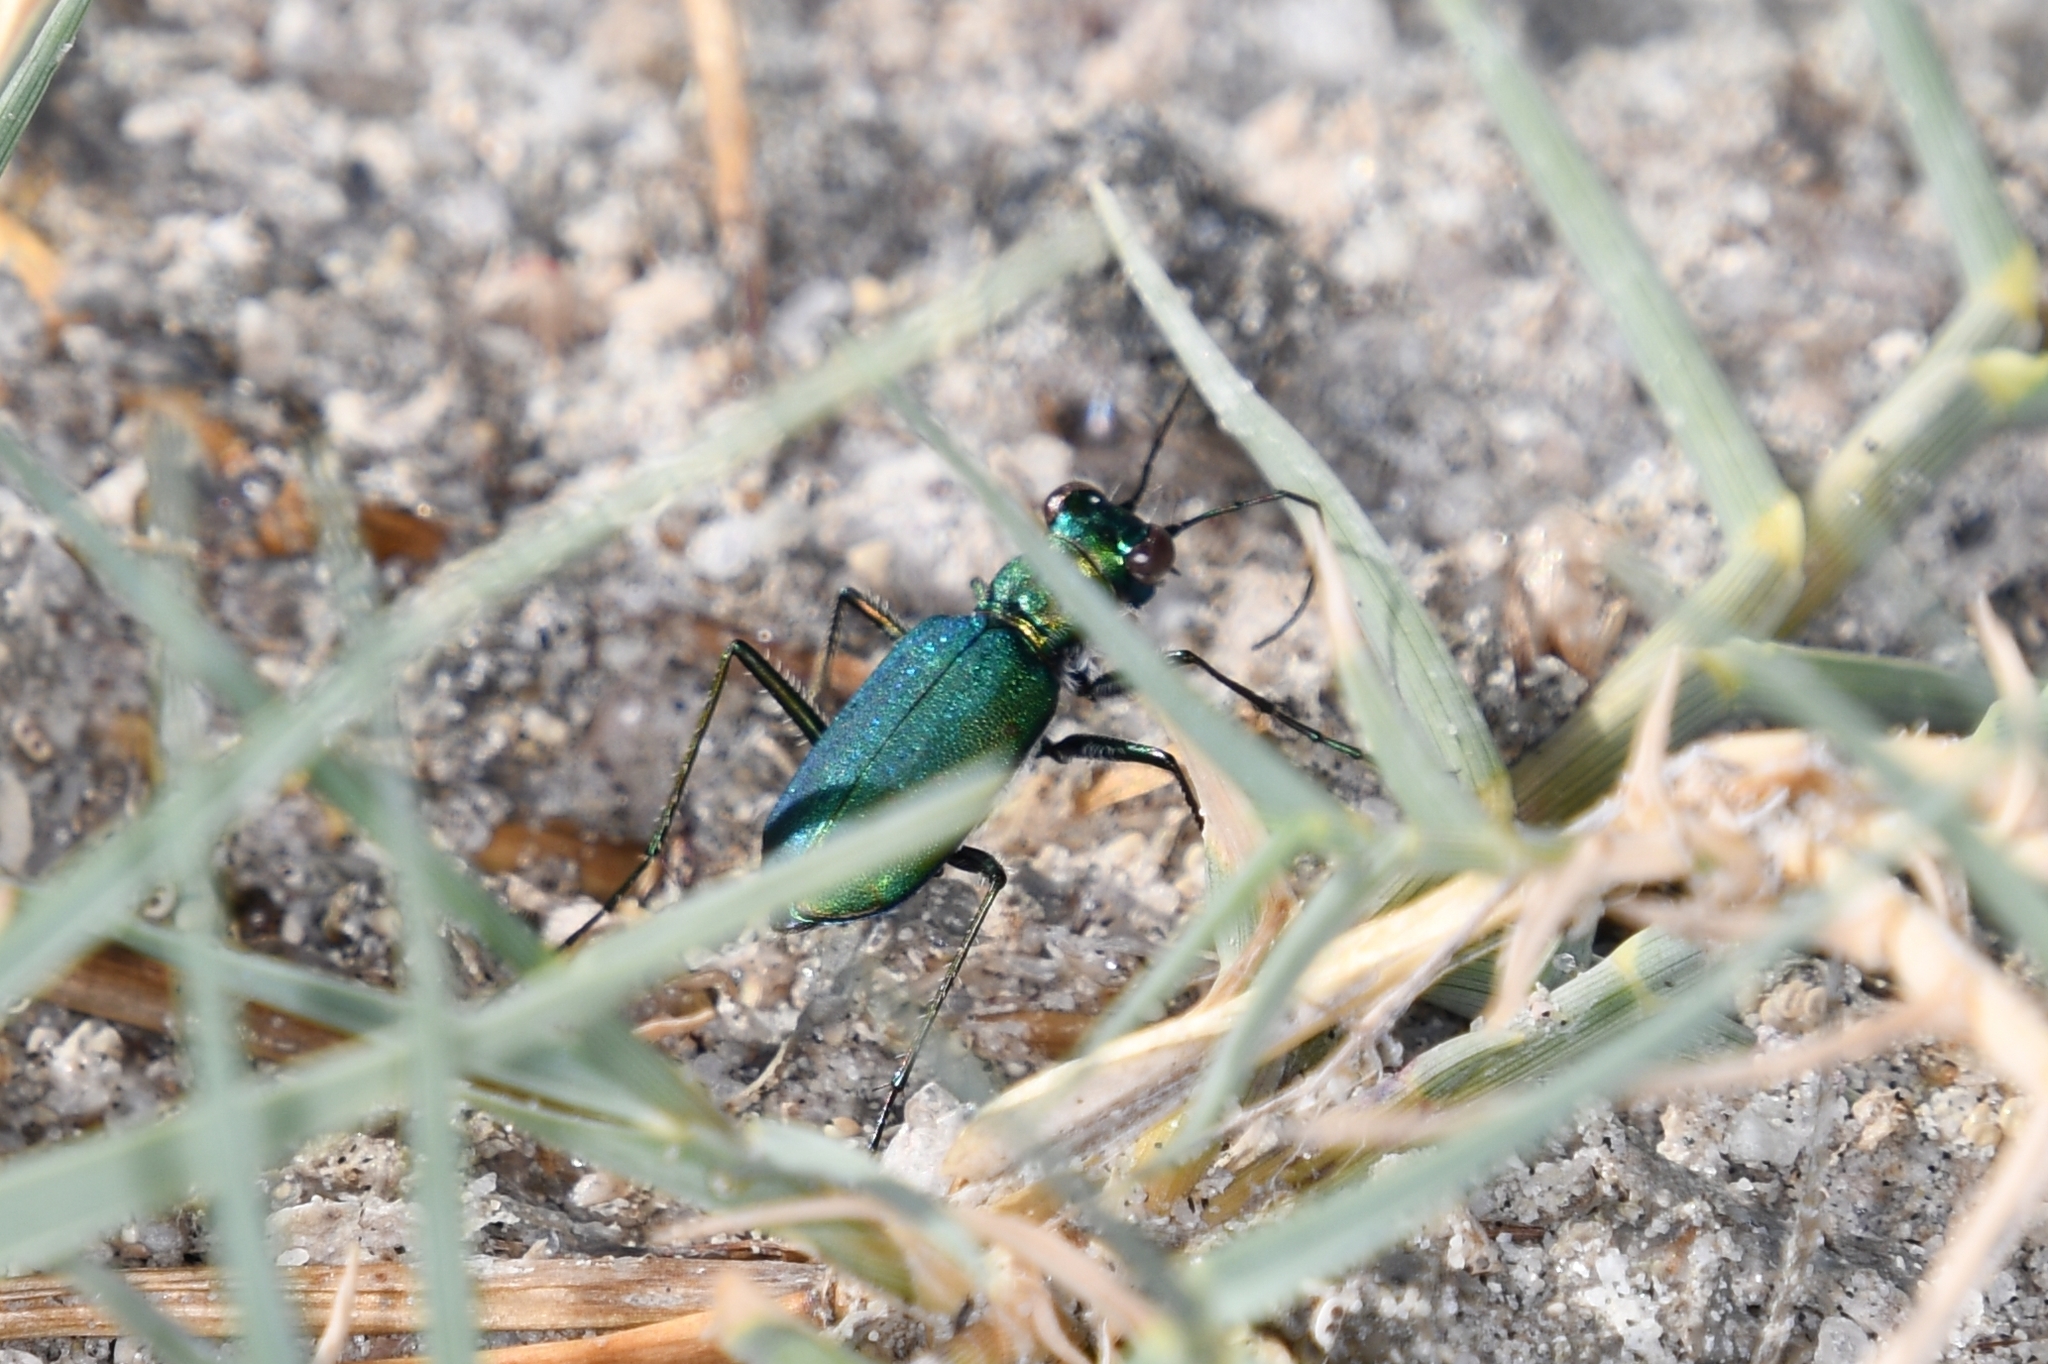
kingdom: Animalia
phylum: Arthropoda
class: Insecta
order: Coleoptera
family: Carabidae
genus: Cicindela
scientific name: Cicindela punctulata
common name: Punctured tiger beetle
